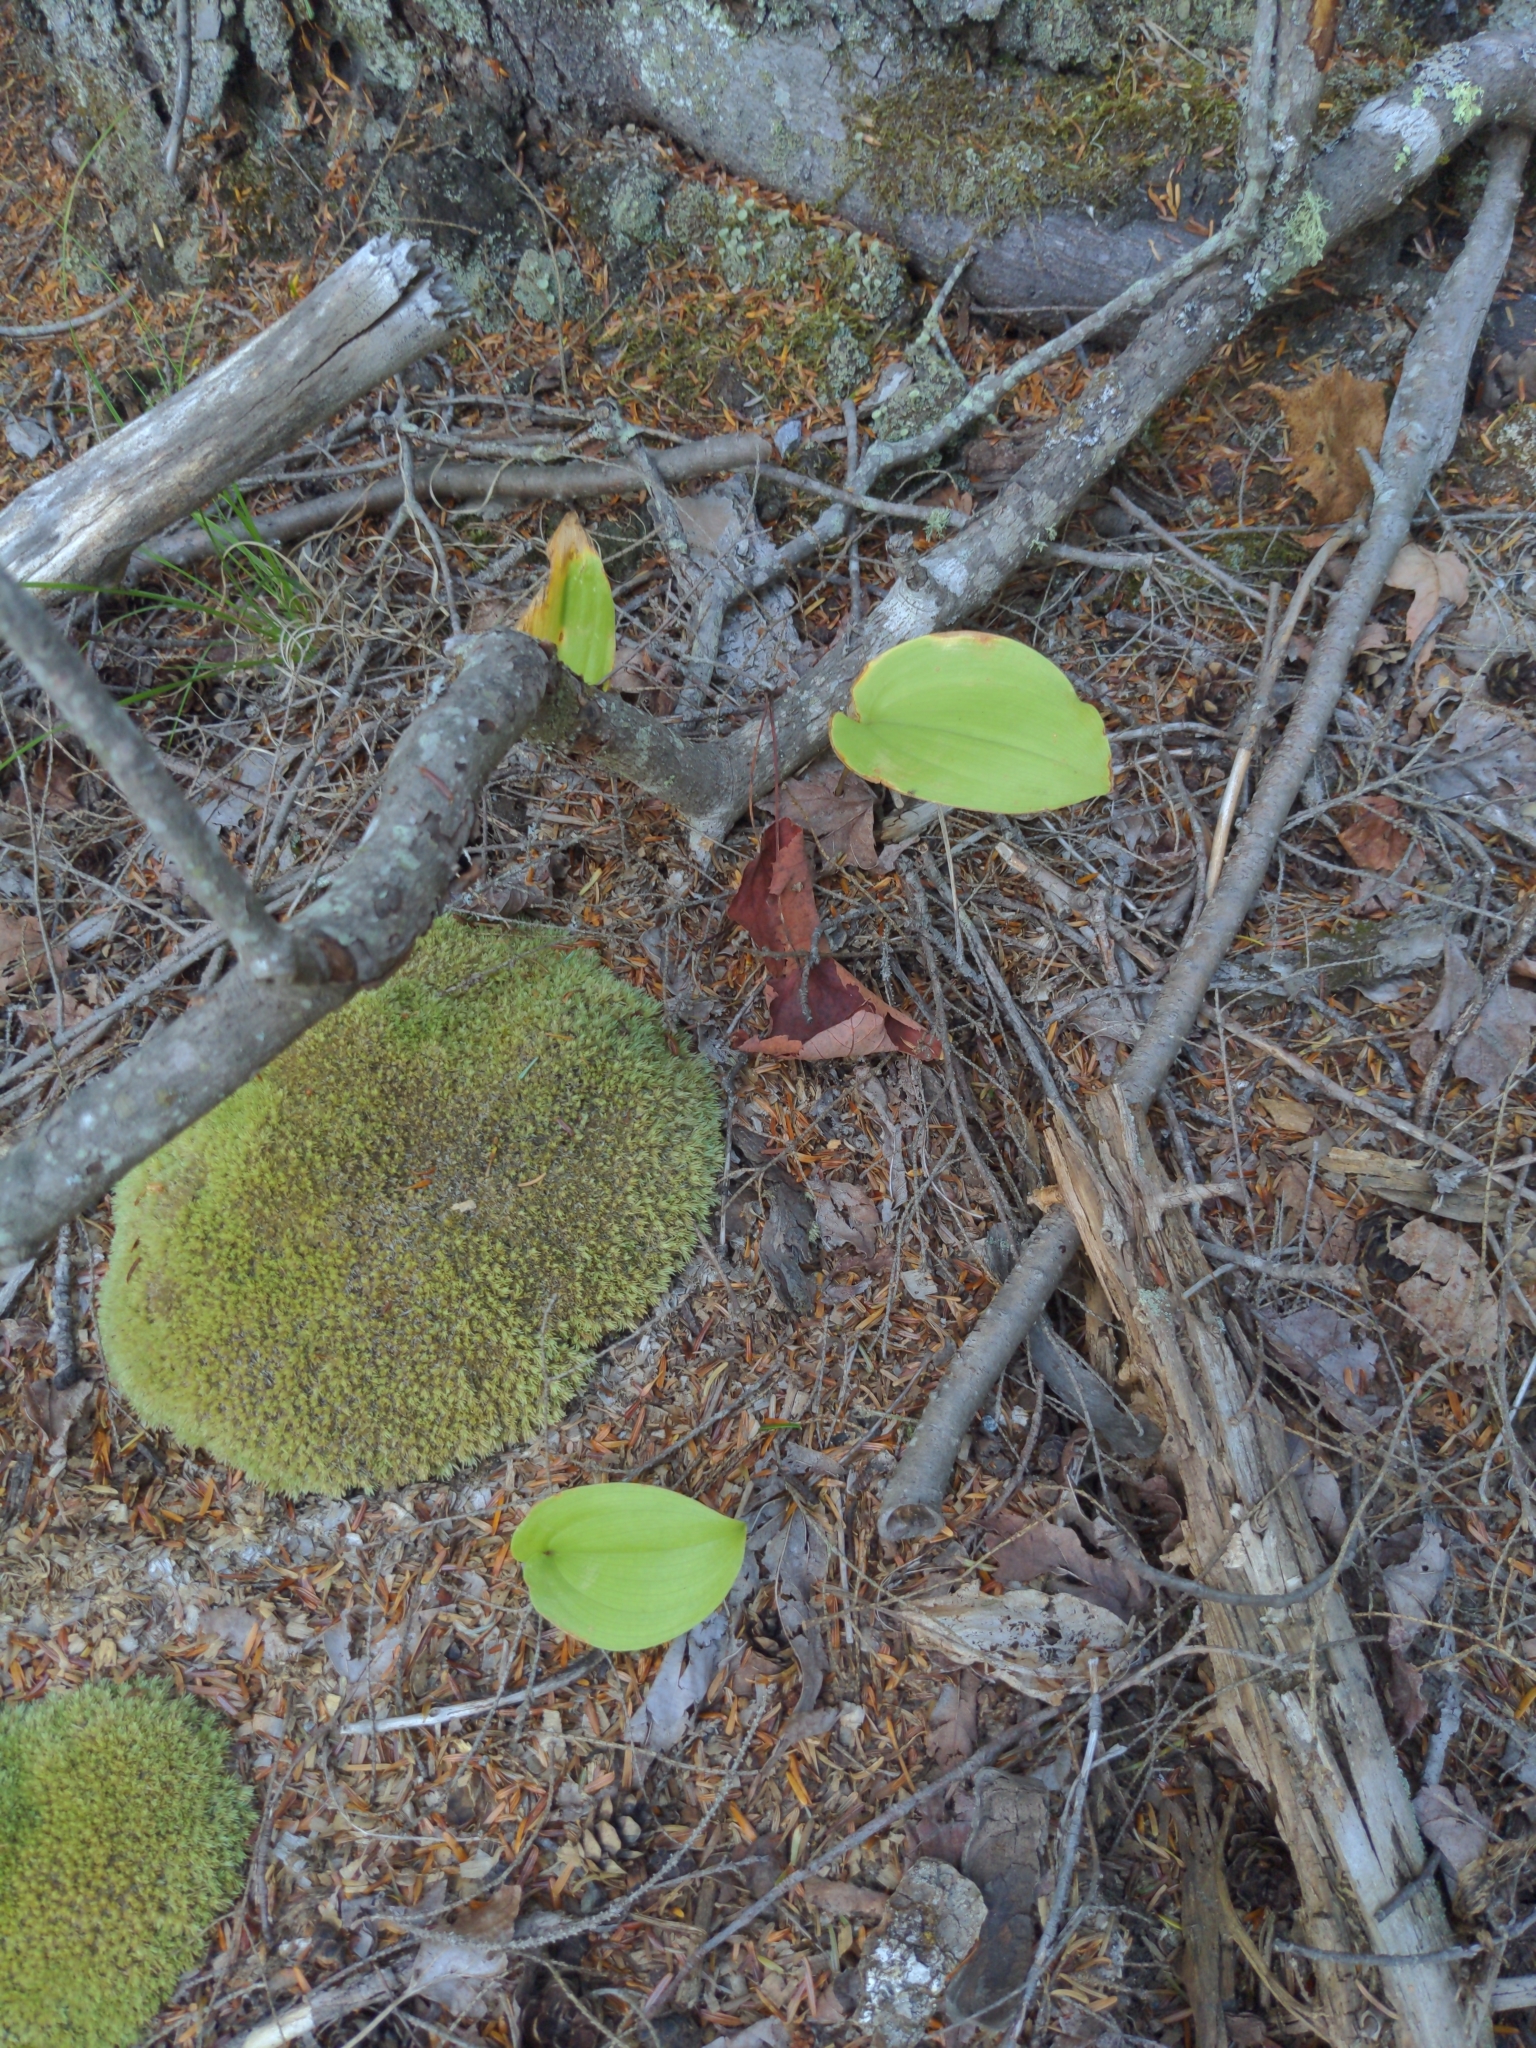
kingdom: Plantae
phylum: Tracheophyta
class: Liliopsida
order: Asparagales
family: Asparagaceae
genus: Maianthemum
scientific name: Maianthemum canadense
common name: False lily-of-the-valley
